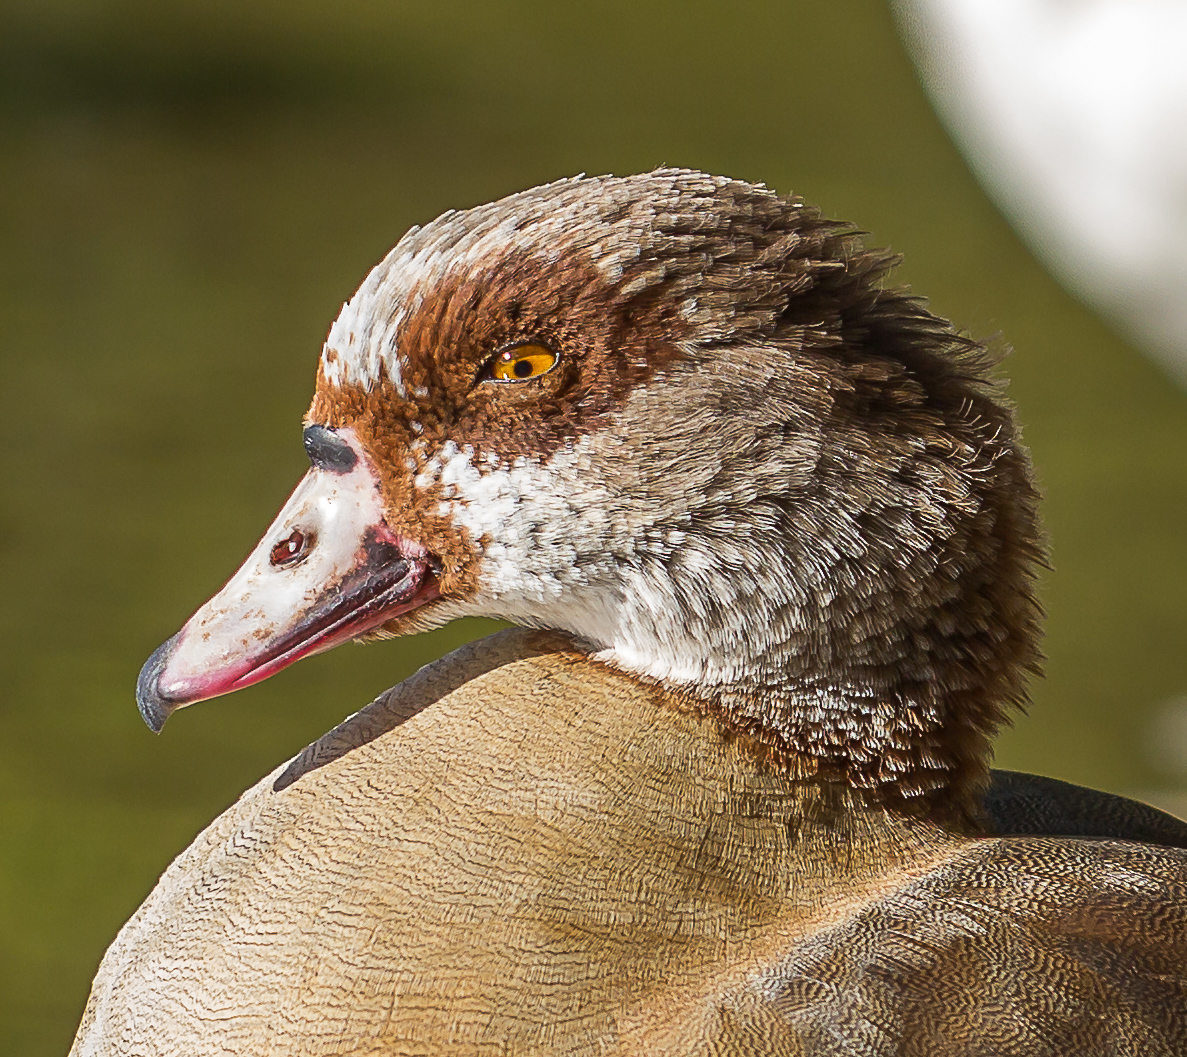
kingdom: Animalia
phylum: Chordata
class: Aves
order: Anseriformes
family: Anatidae
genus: Alopochen
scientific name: Alopochen aegyptiaca
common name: Egyptian goose
